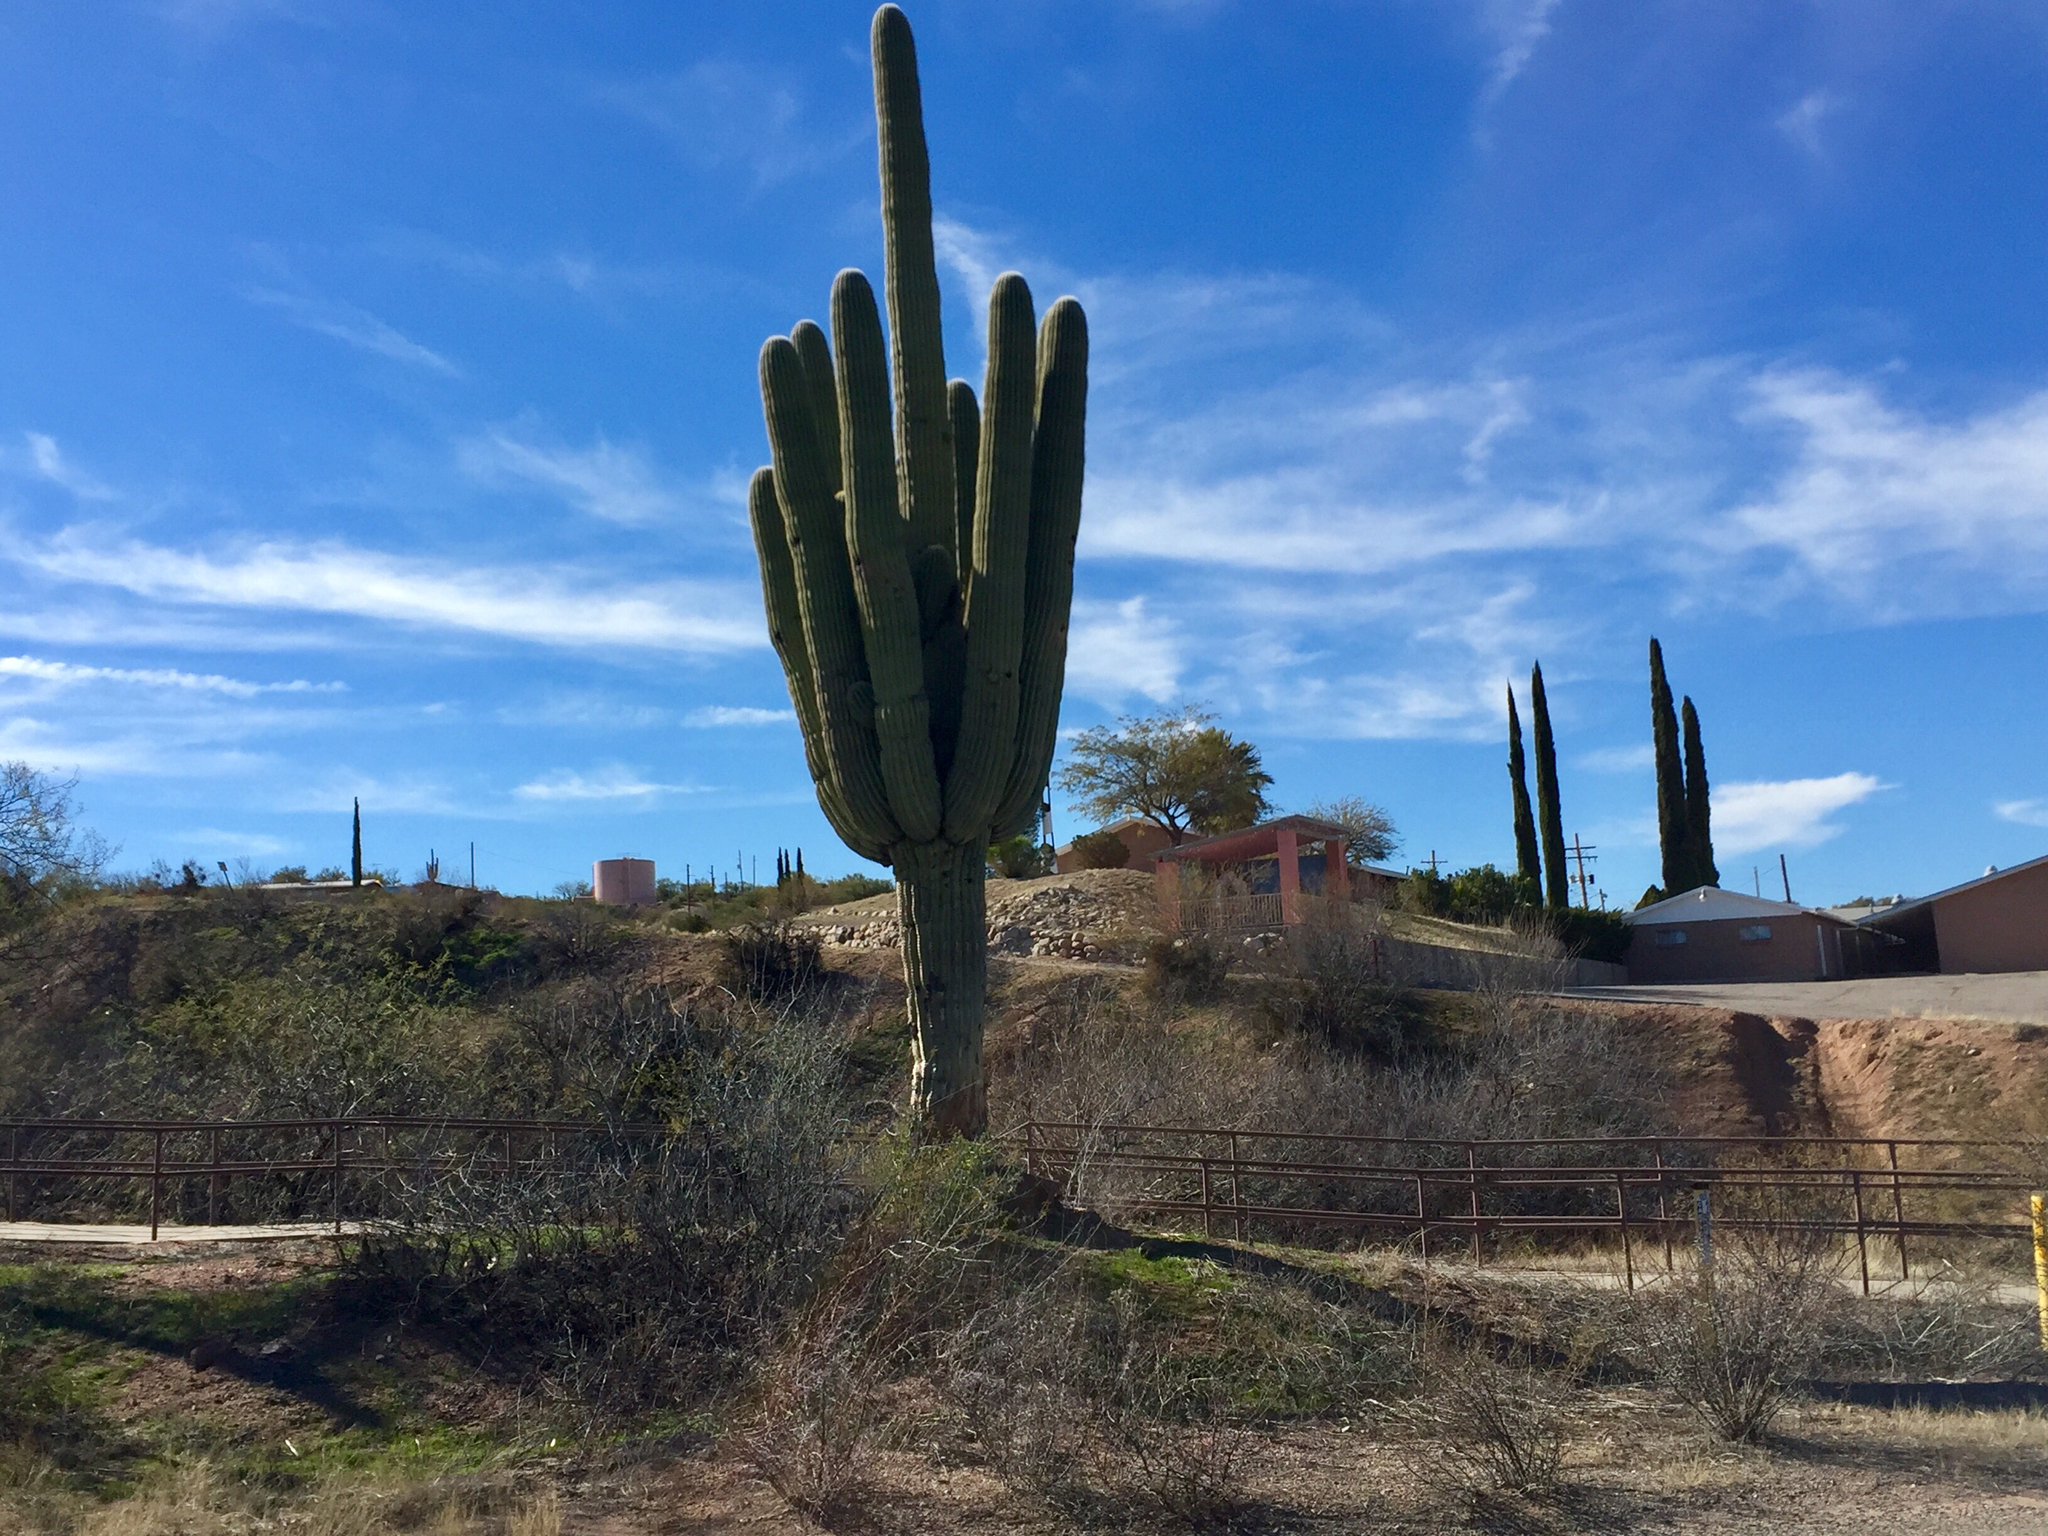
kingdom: Plantae
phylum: Tracheophyta
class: Magnoliopsida
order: Caryophyllales
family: Cactaceae
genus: Carnegiea
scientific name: Carnegiea gigantea
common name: Saguaro
